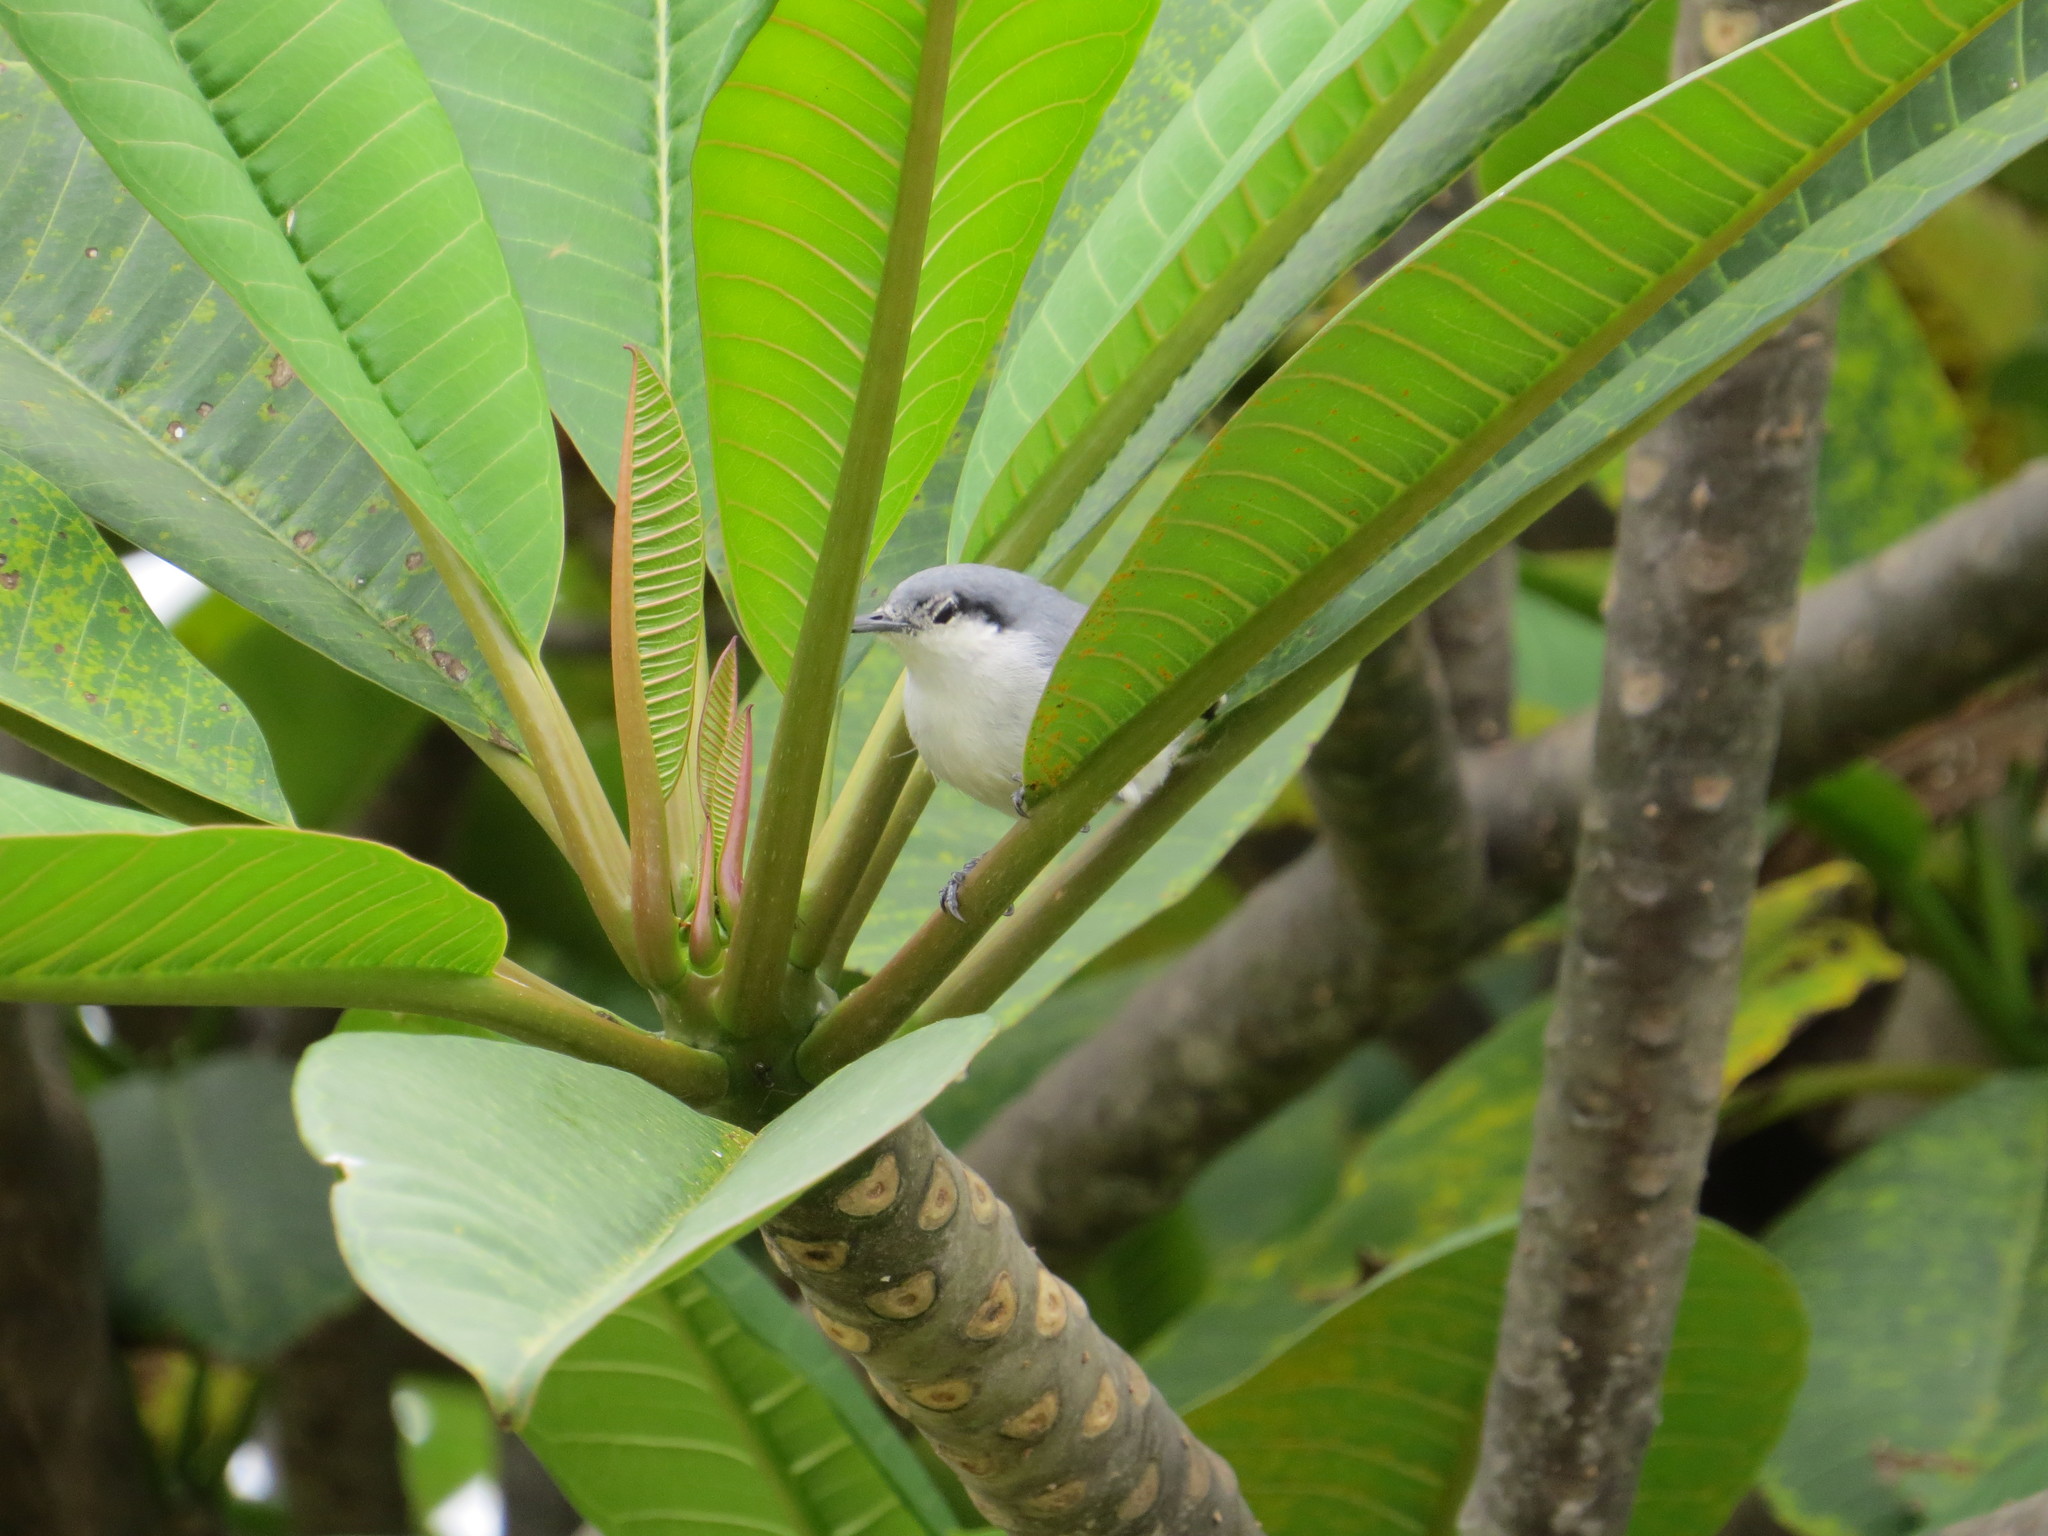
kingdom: Animalia
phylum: Chordata
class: Aves
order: Passeriformes
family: Polioptilidae
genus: Polioptila
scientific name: Polioptila dumicola
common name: Masked gnatcatcher
